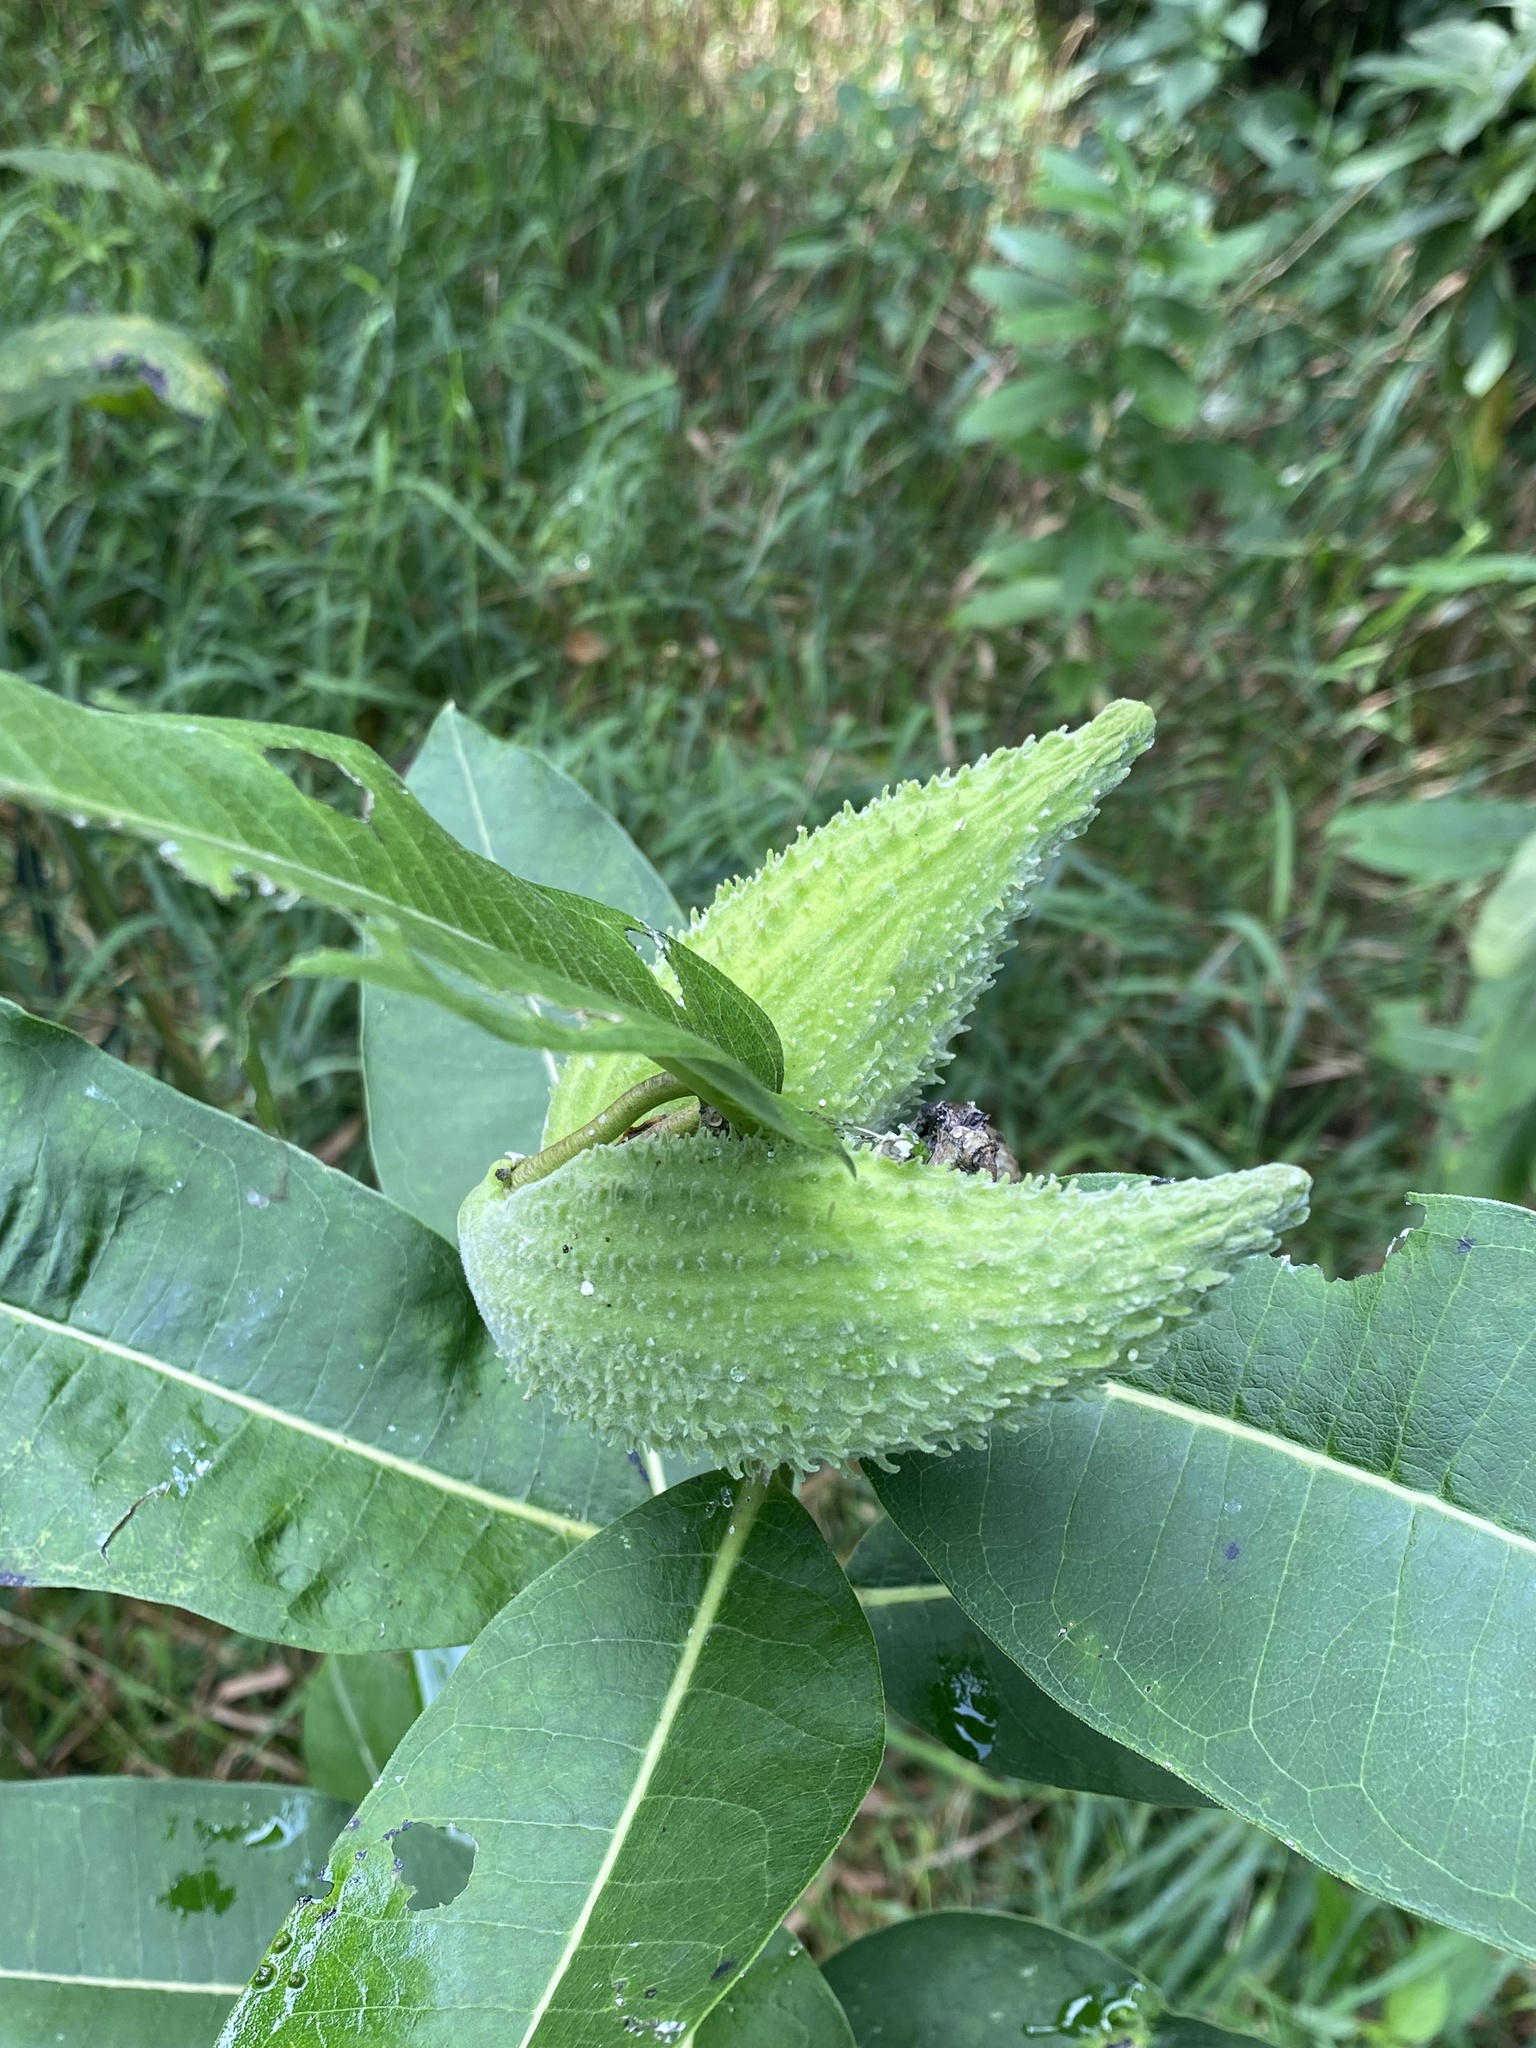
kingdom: Plantae
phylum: Tracheophyta
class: Magnoliopsida
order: Gentianales
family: Apocynaceae
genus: Asclepias
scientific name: Asclepias syriaca
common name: Common milkweed
